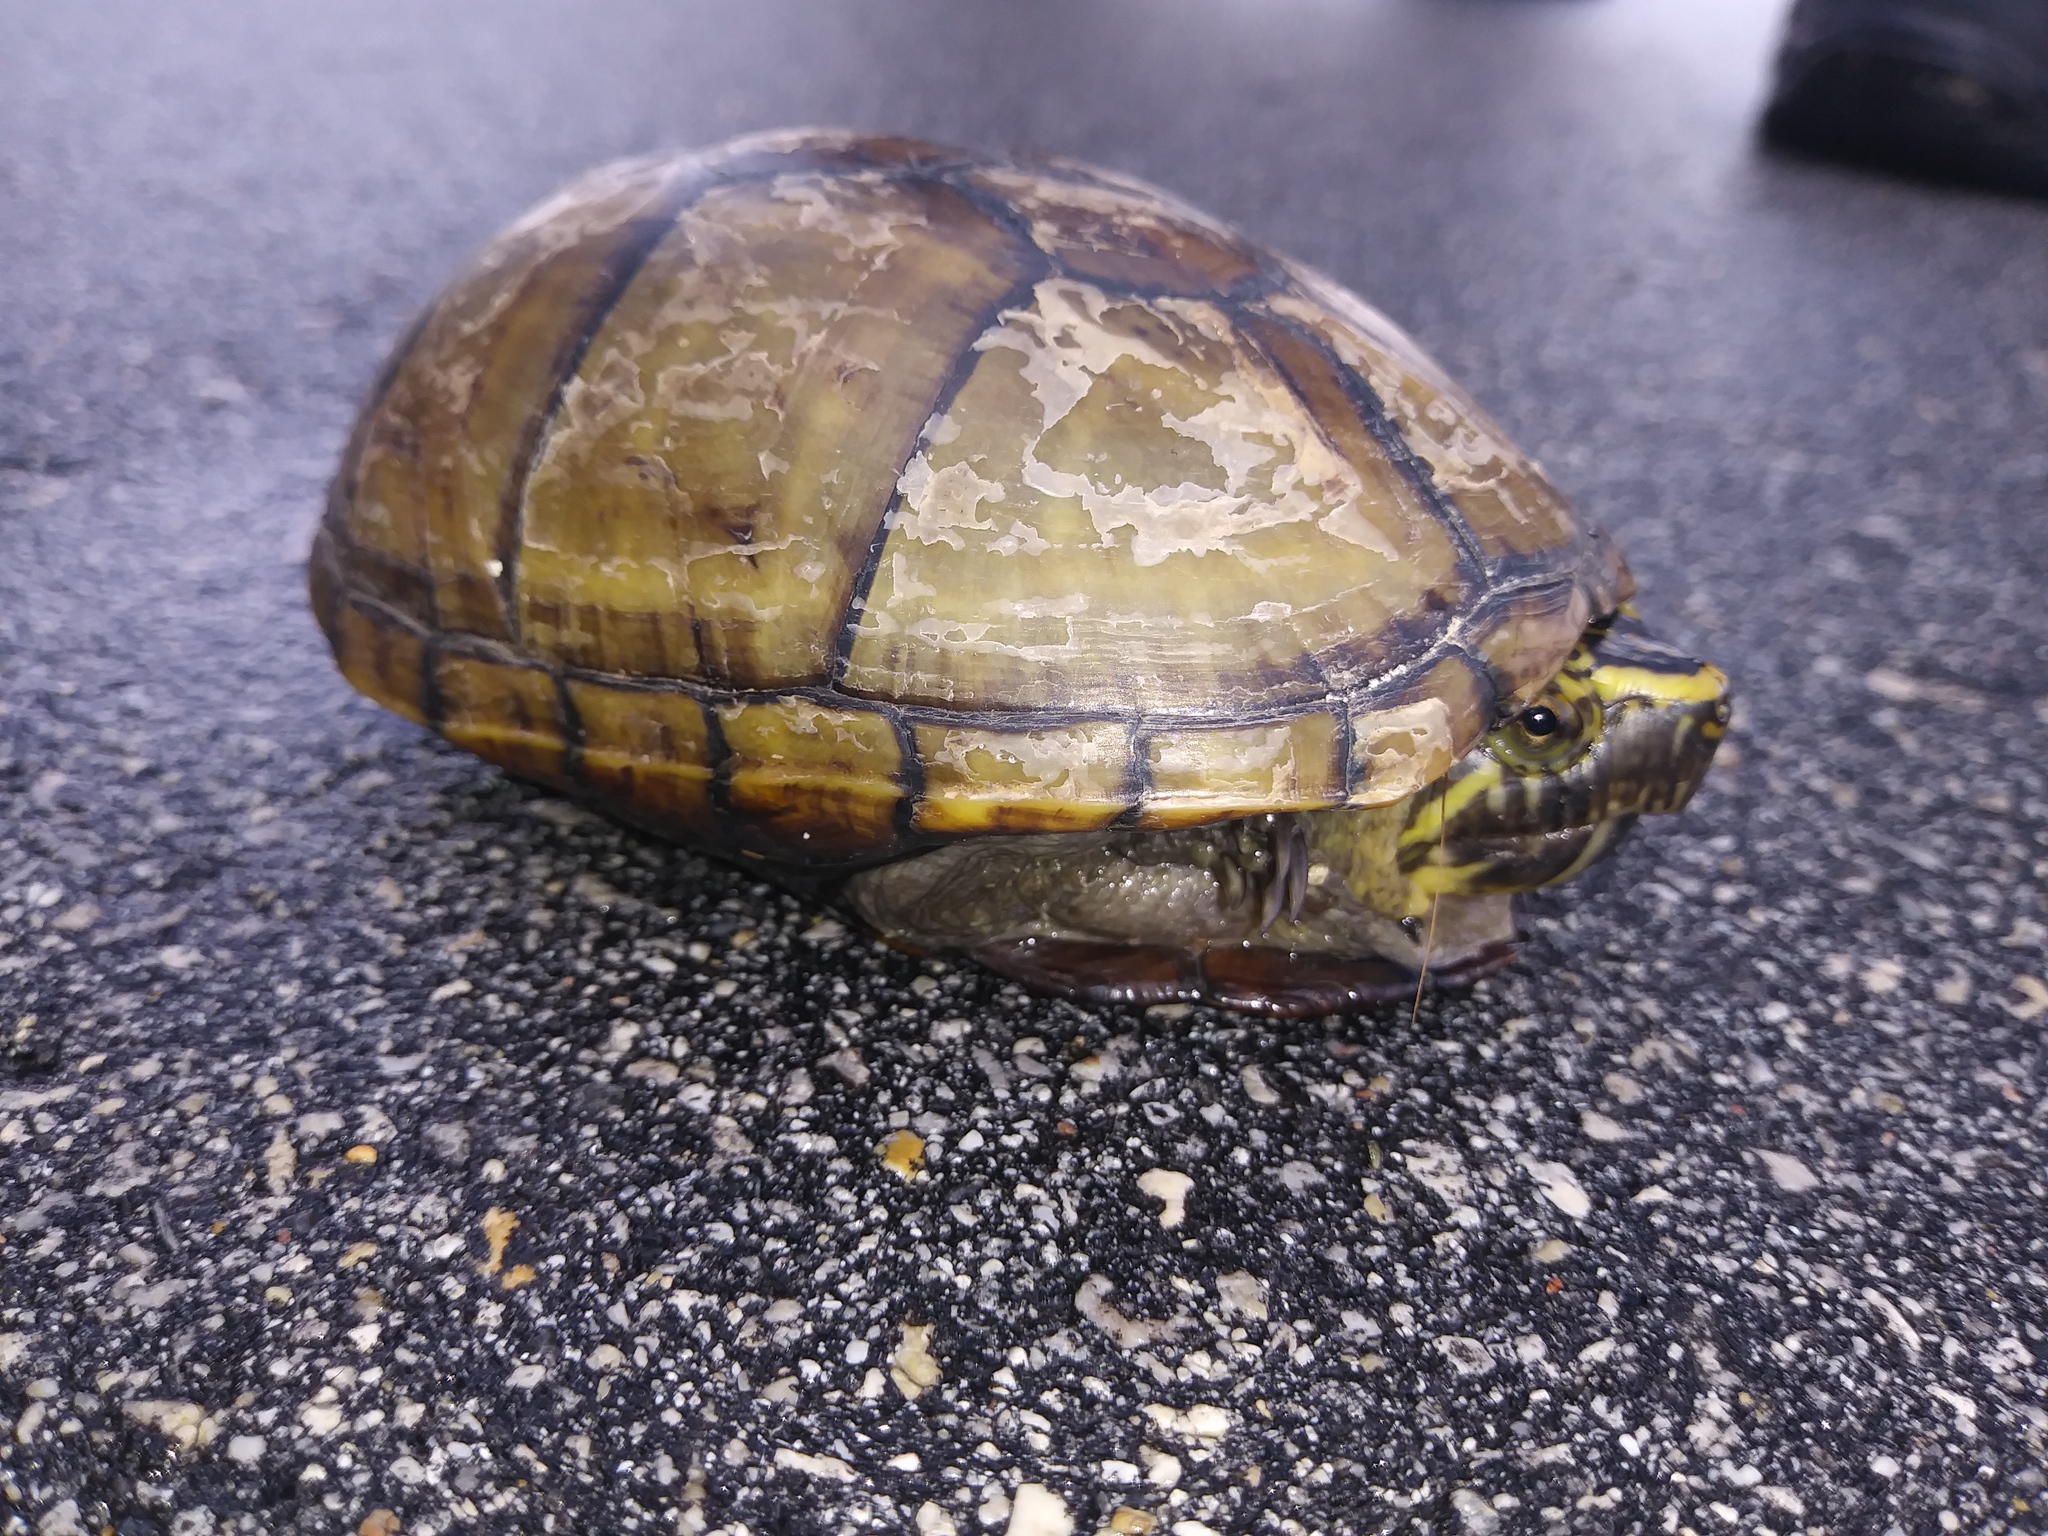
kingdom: Animalia
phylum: Chordata
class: Testudines
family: Kinosternidae
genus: Kinosternon
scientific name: Kinosternon baurii
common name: Striped mud turtle
